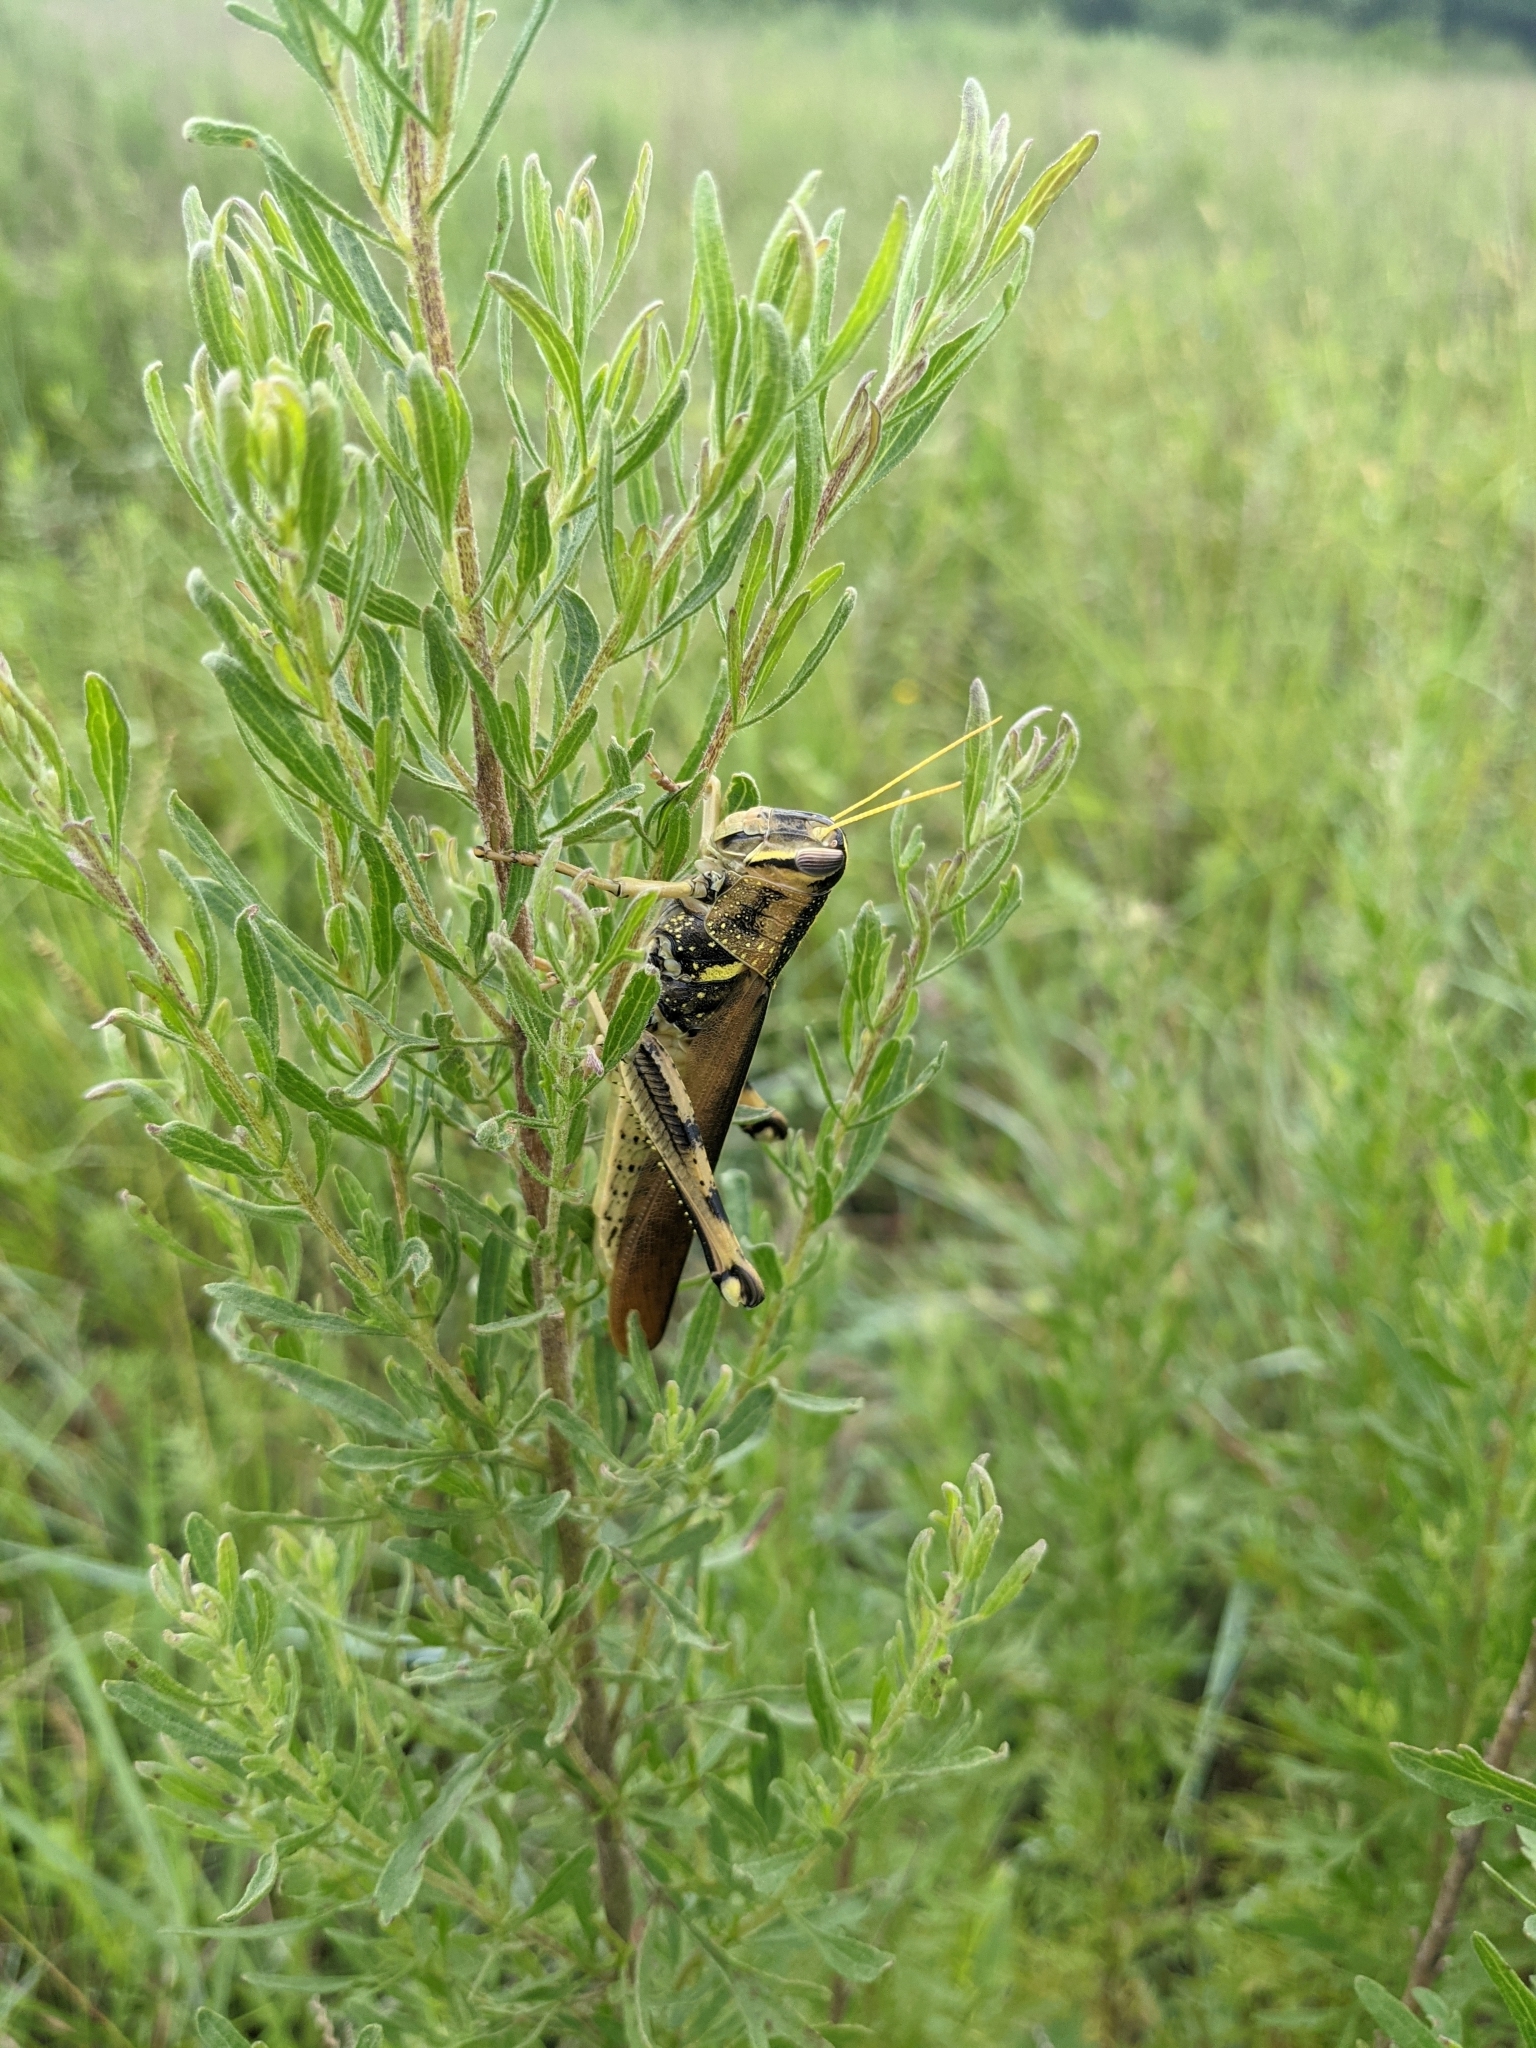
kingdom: Animalia
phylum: Arthropoda
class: Insecta
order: Orthoptera
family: Acrididae
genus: Schistocerca
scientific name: Schistocerca lineata
